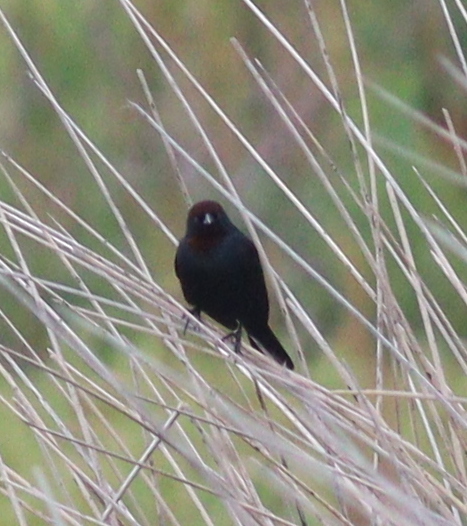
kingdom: Animalia
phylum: Chordata
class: Aves
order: Passeriformes
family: Icteridae
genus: Chrysomus
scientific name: Chrysomus ruficapillus
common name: Chestnut-capped blackbird
